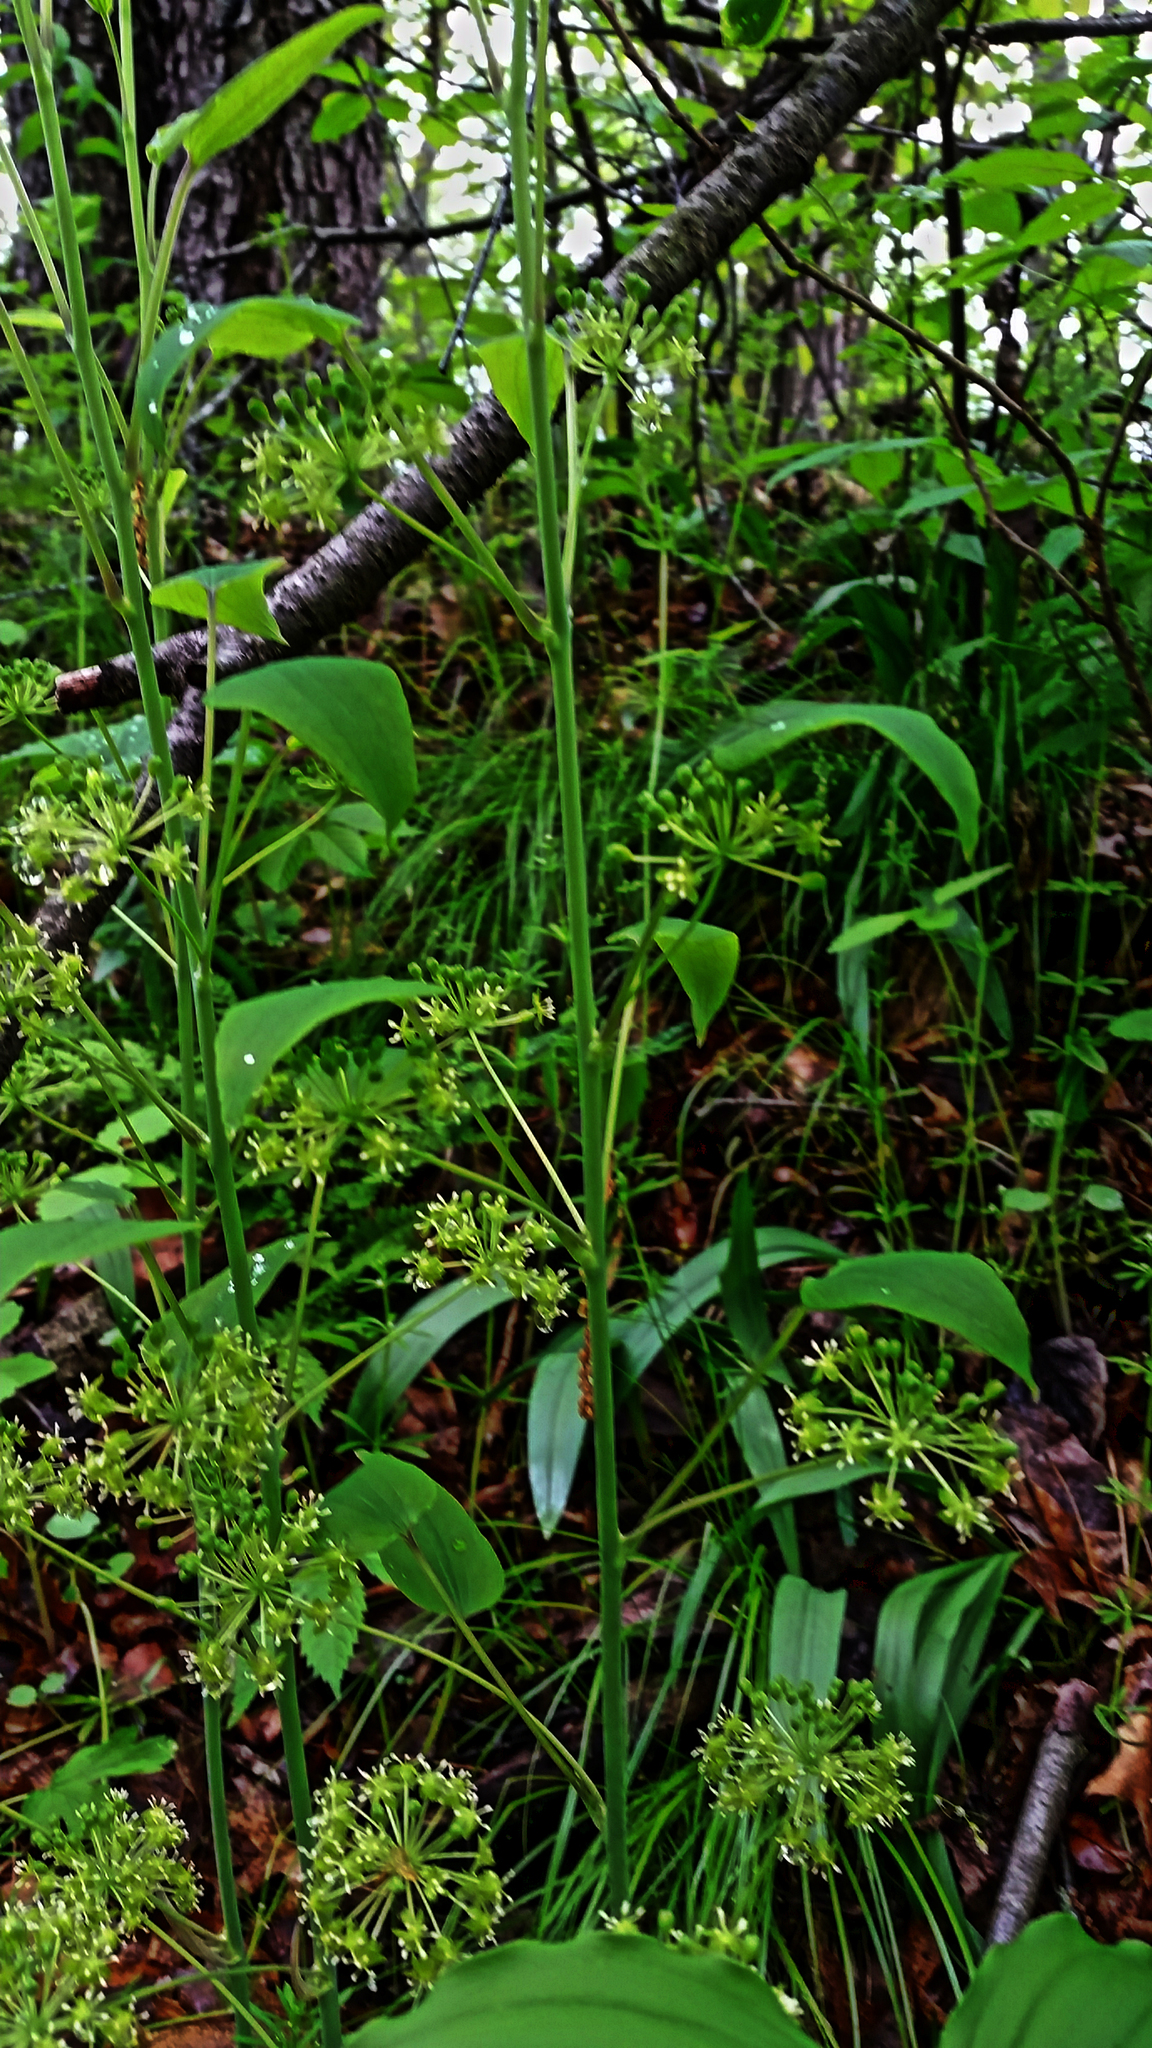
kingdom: Plantae
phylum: Tracheophyta
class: Liliopsida
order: Liliales
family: Smilacaceae
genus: Smilax
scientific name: Smilax illinoensis
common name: Illinois carrionflower
